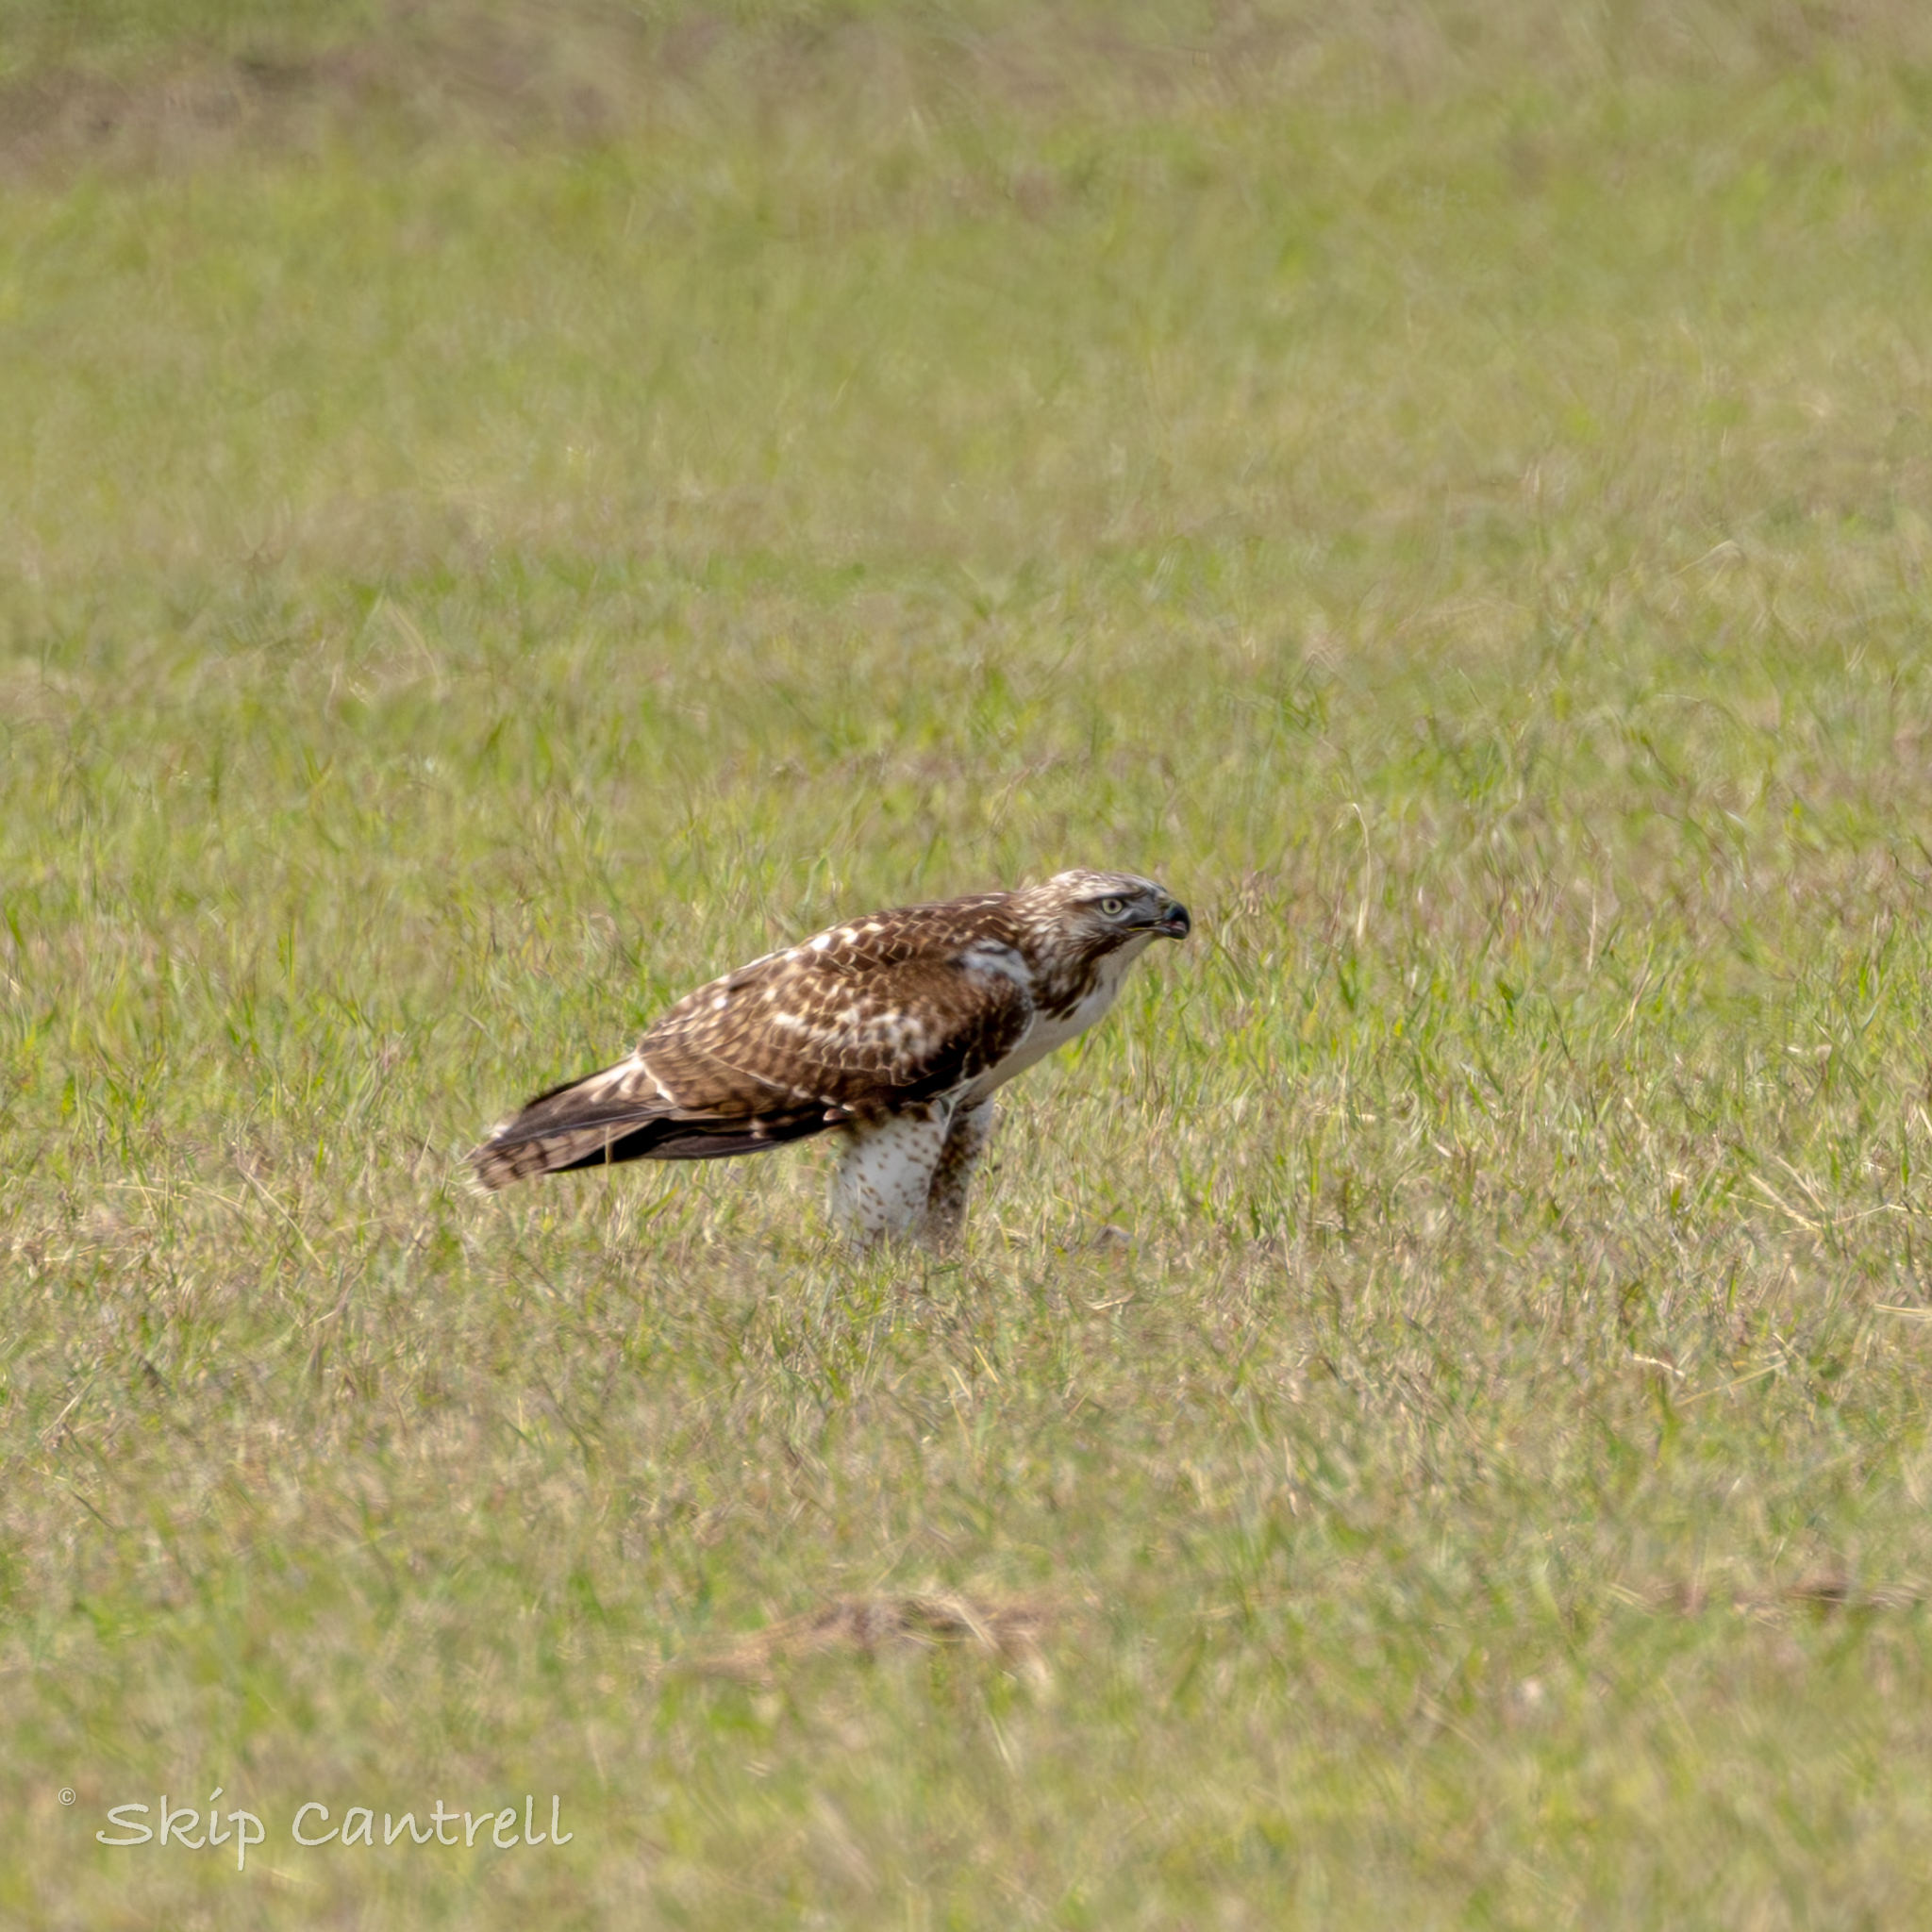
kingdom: Animalia
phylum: Chordata
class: Aves
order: Accipitriformes
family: Accipitridae
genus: Buteo
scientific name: Buteo jamaicensis
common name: Red-tailed hawk
